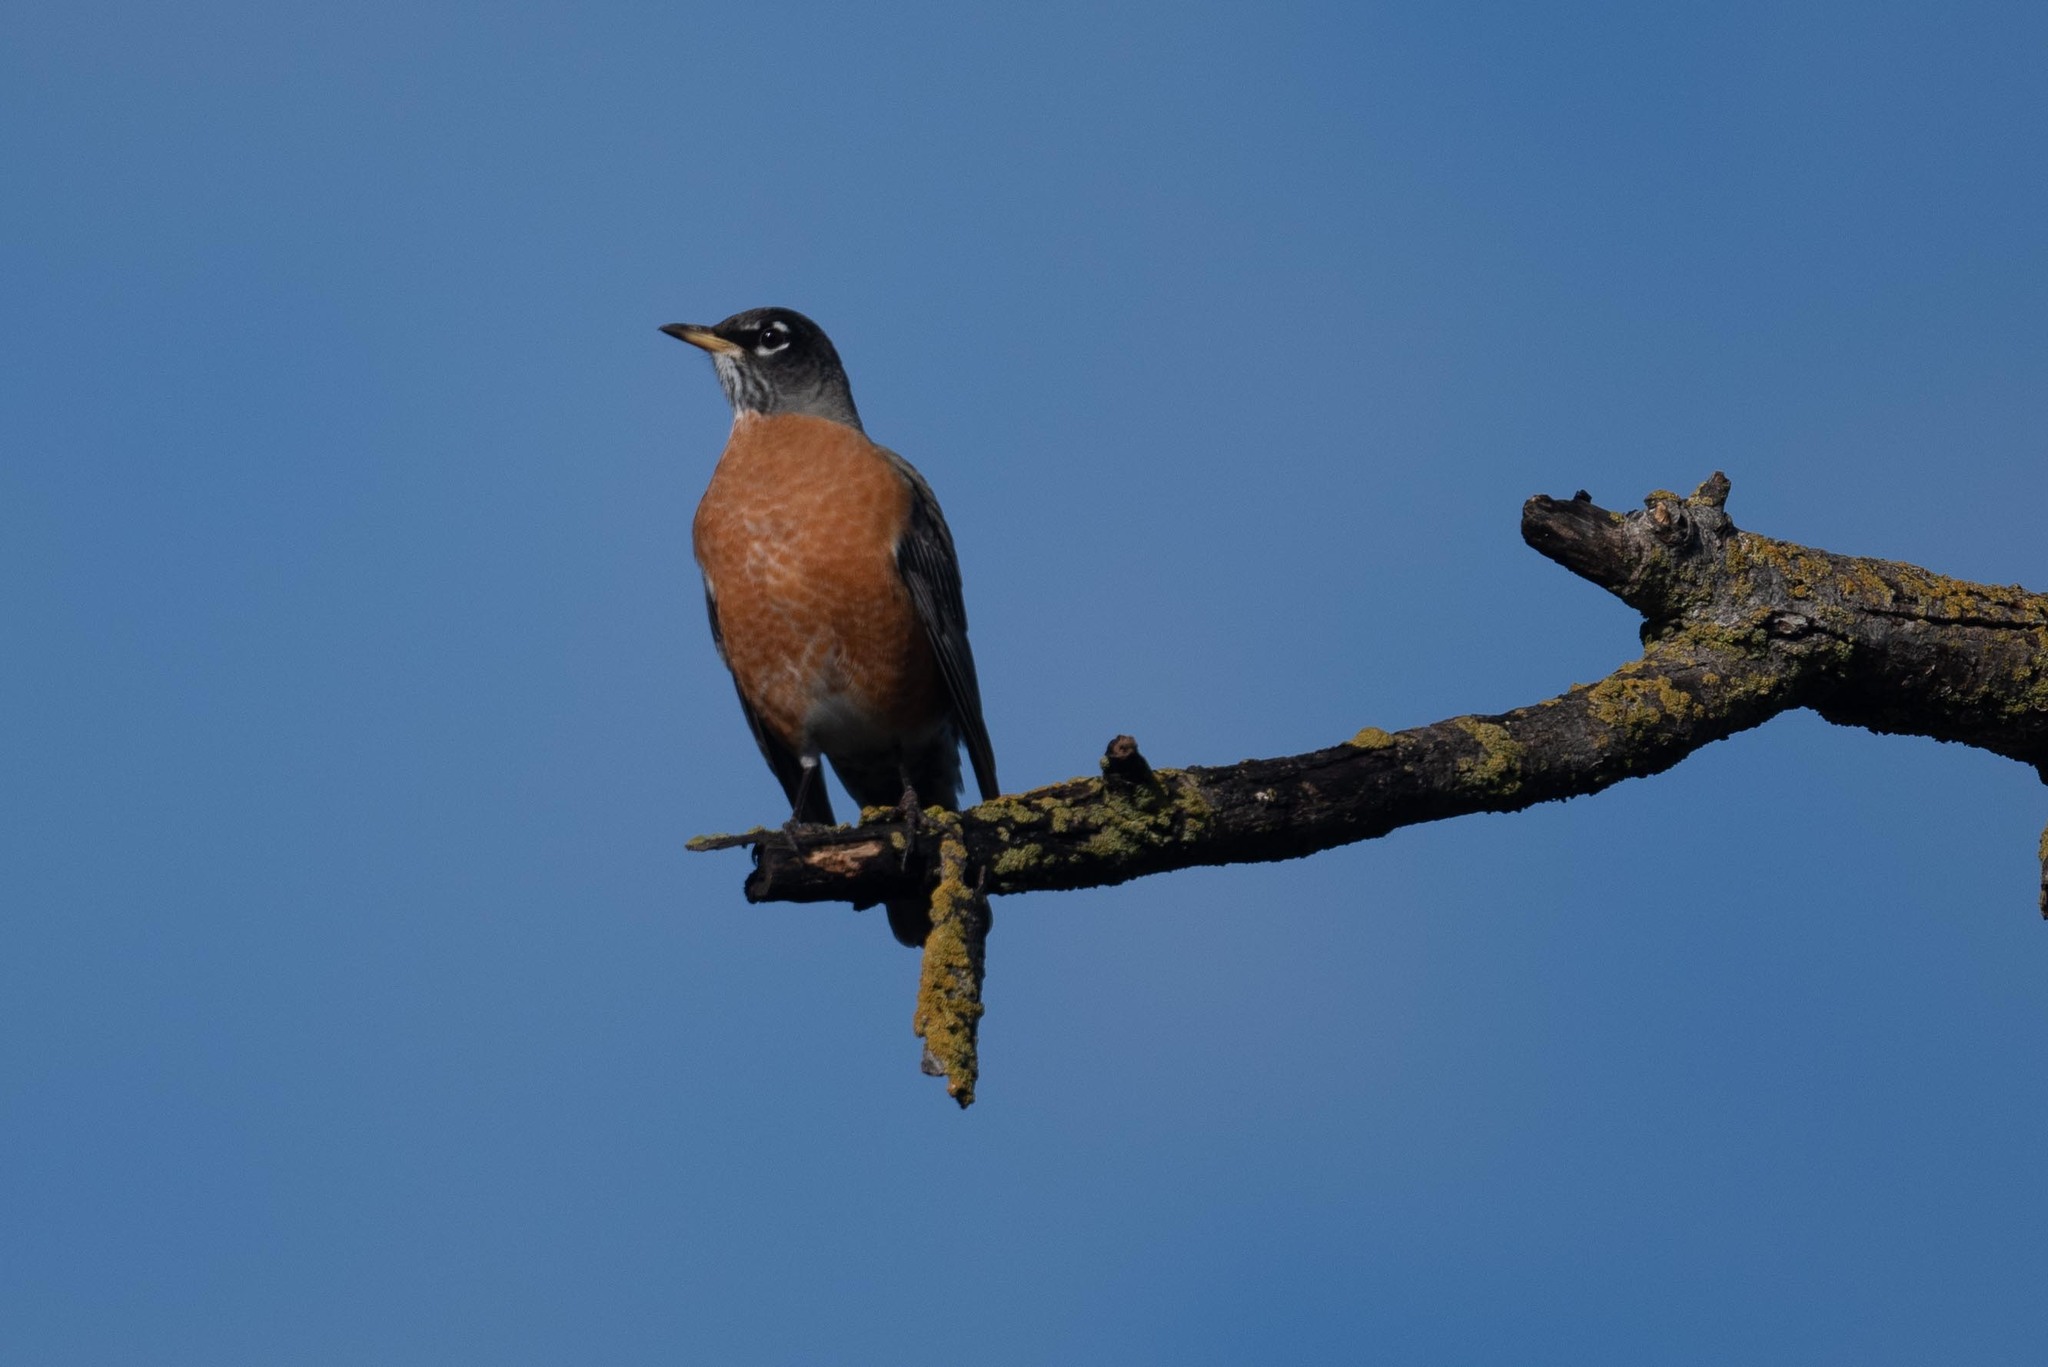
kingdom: Animalia
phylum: Chordata
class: Aves
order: Passeriformes
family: Turdidae
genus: Turdus
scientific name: Turdus migratorius
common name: American robin
